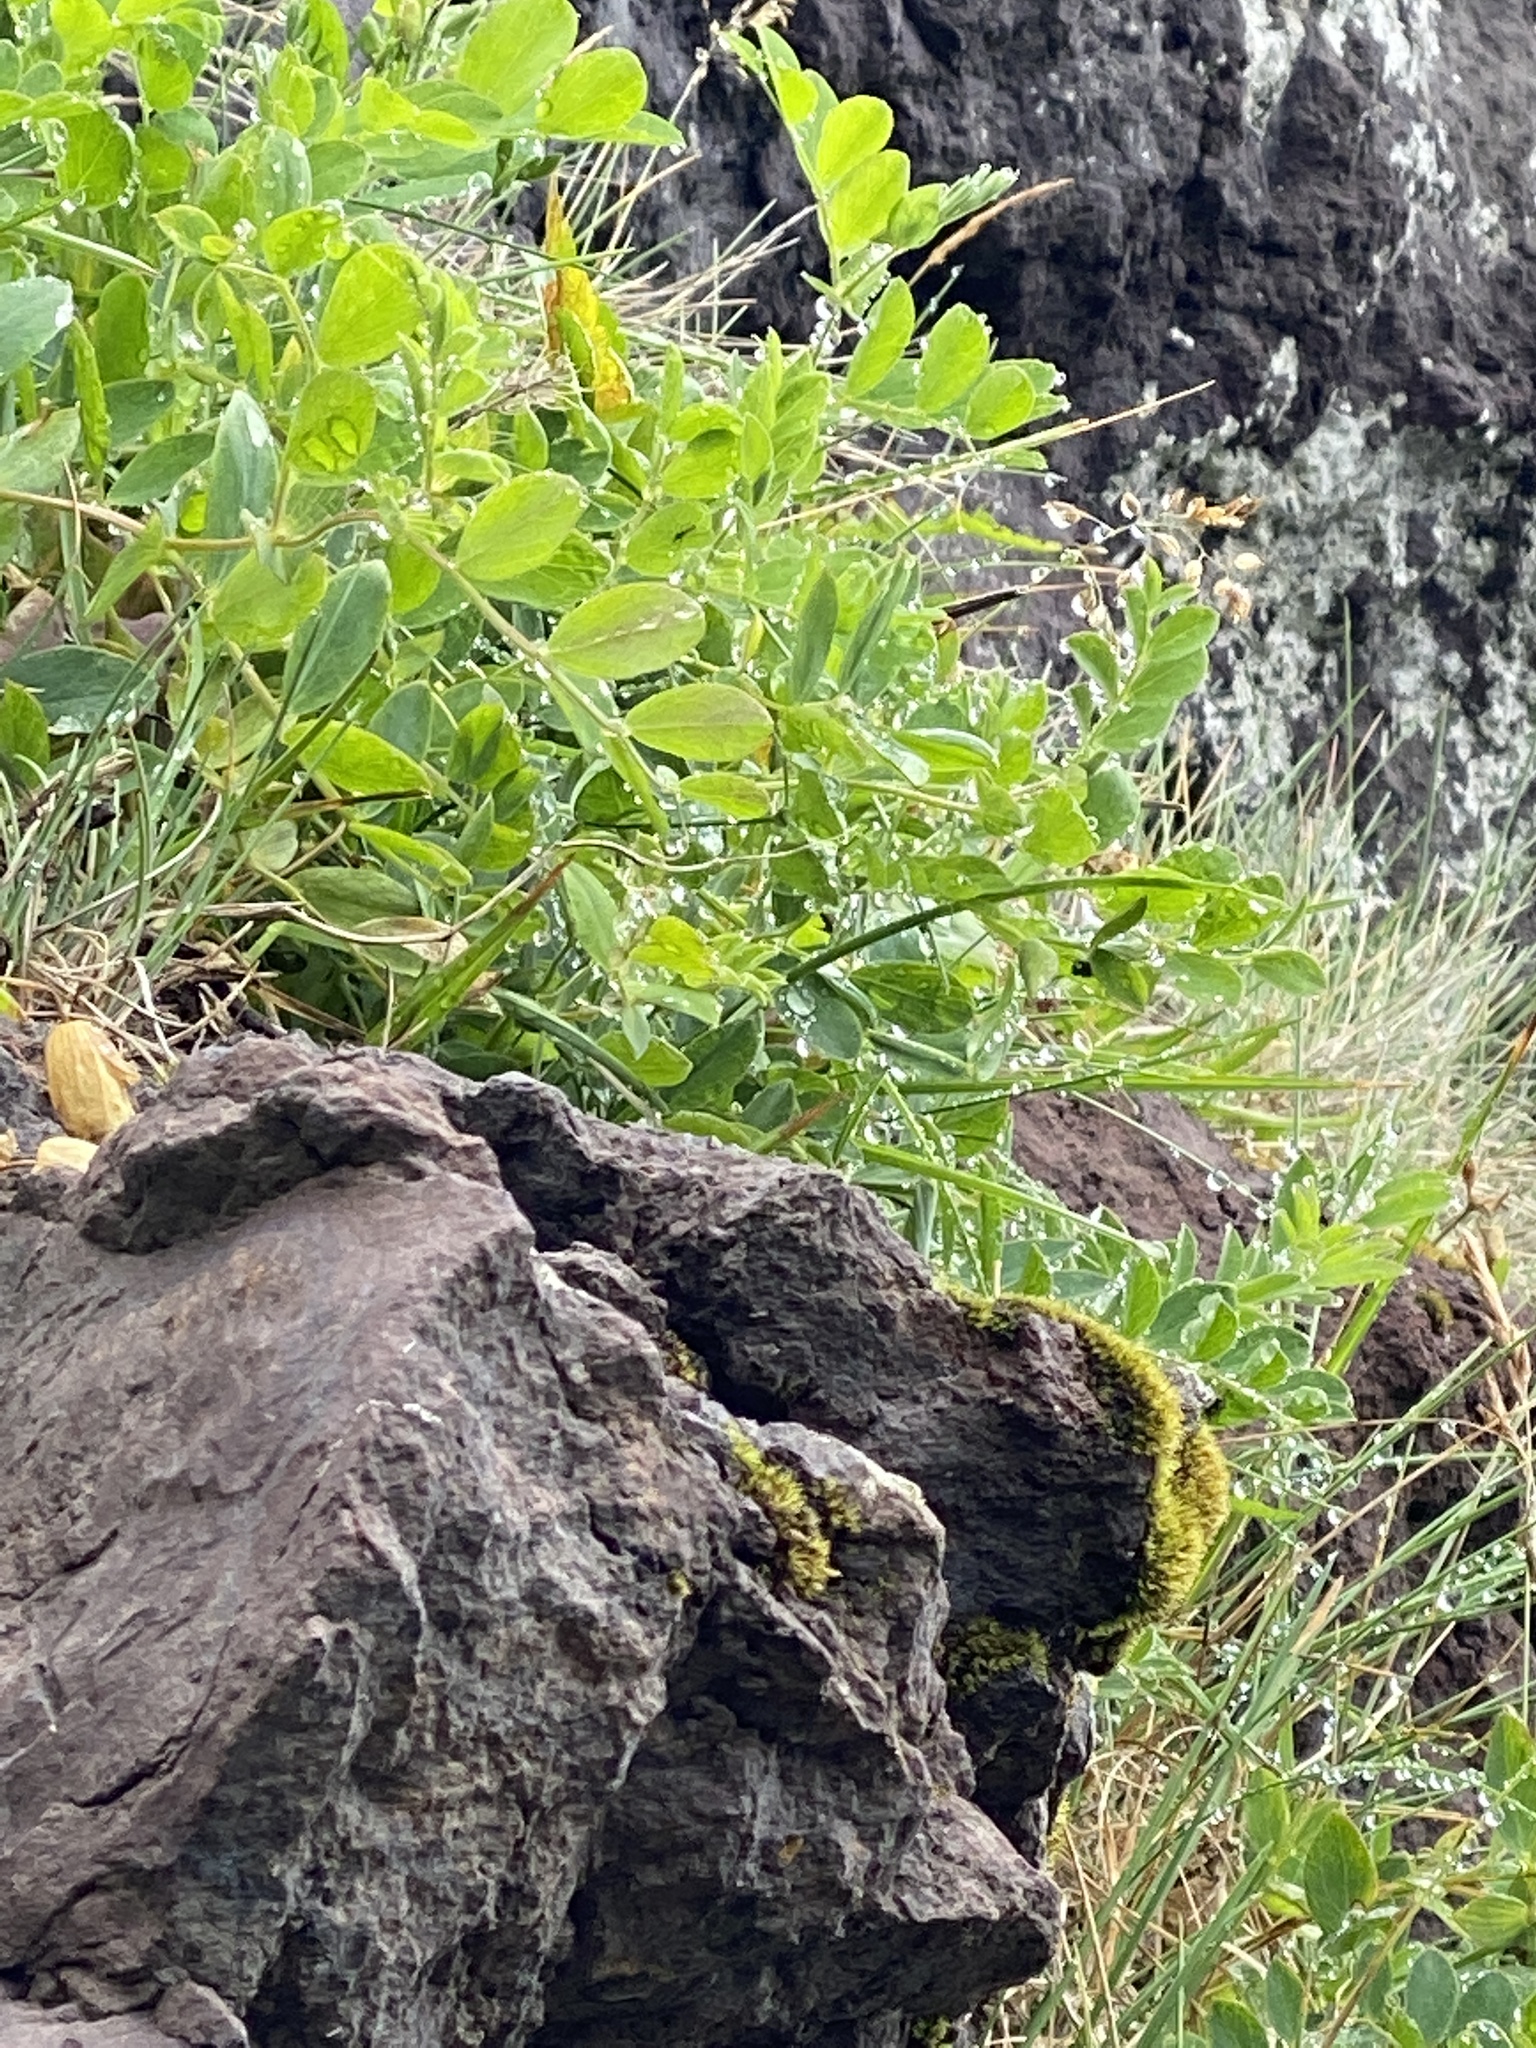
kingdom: Plantae
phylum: Tracheophyta
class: Magnoliopsida
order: Fabales
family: Fabaceae
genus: Lathyrus
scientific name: Lathyrus japonicus
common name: Sea pea
